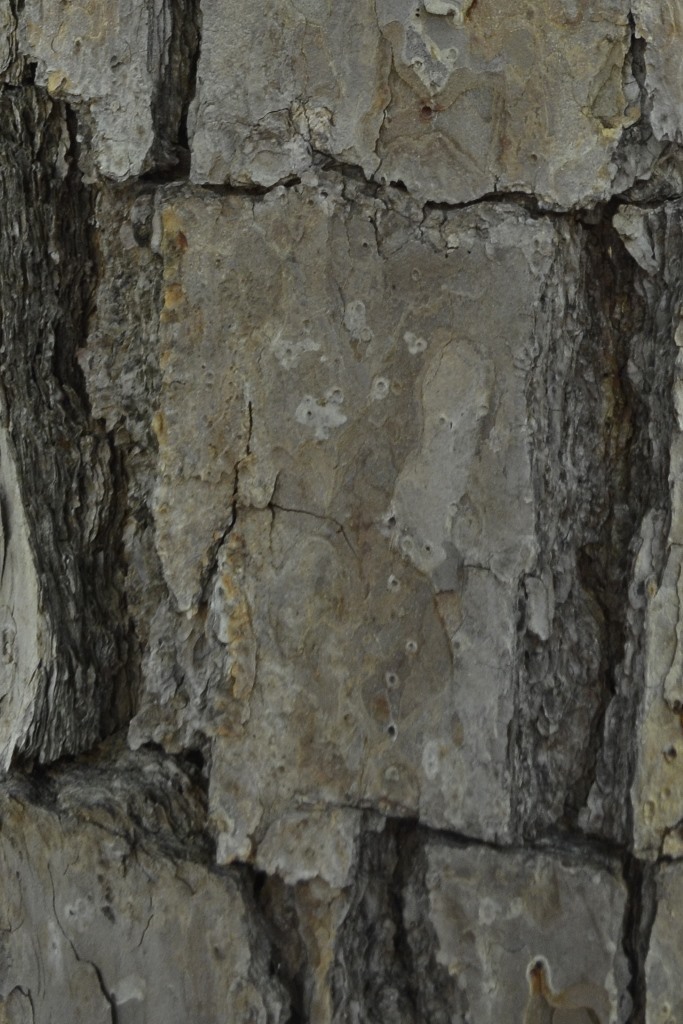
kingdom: Plantae
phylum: Tracheophyta
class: Pinopsida
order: Pinales
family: Pinaceae
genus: Pinus
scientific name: Pinus echinata
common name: Shortleaf pine
